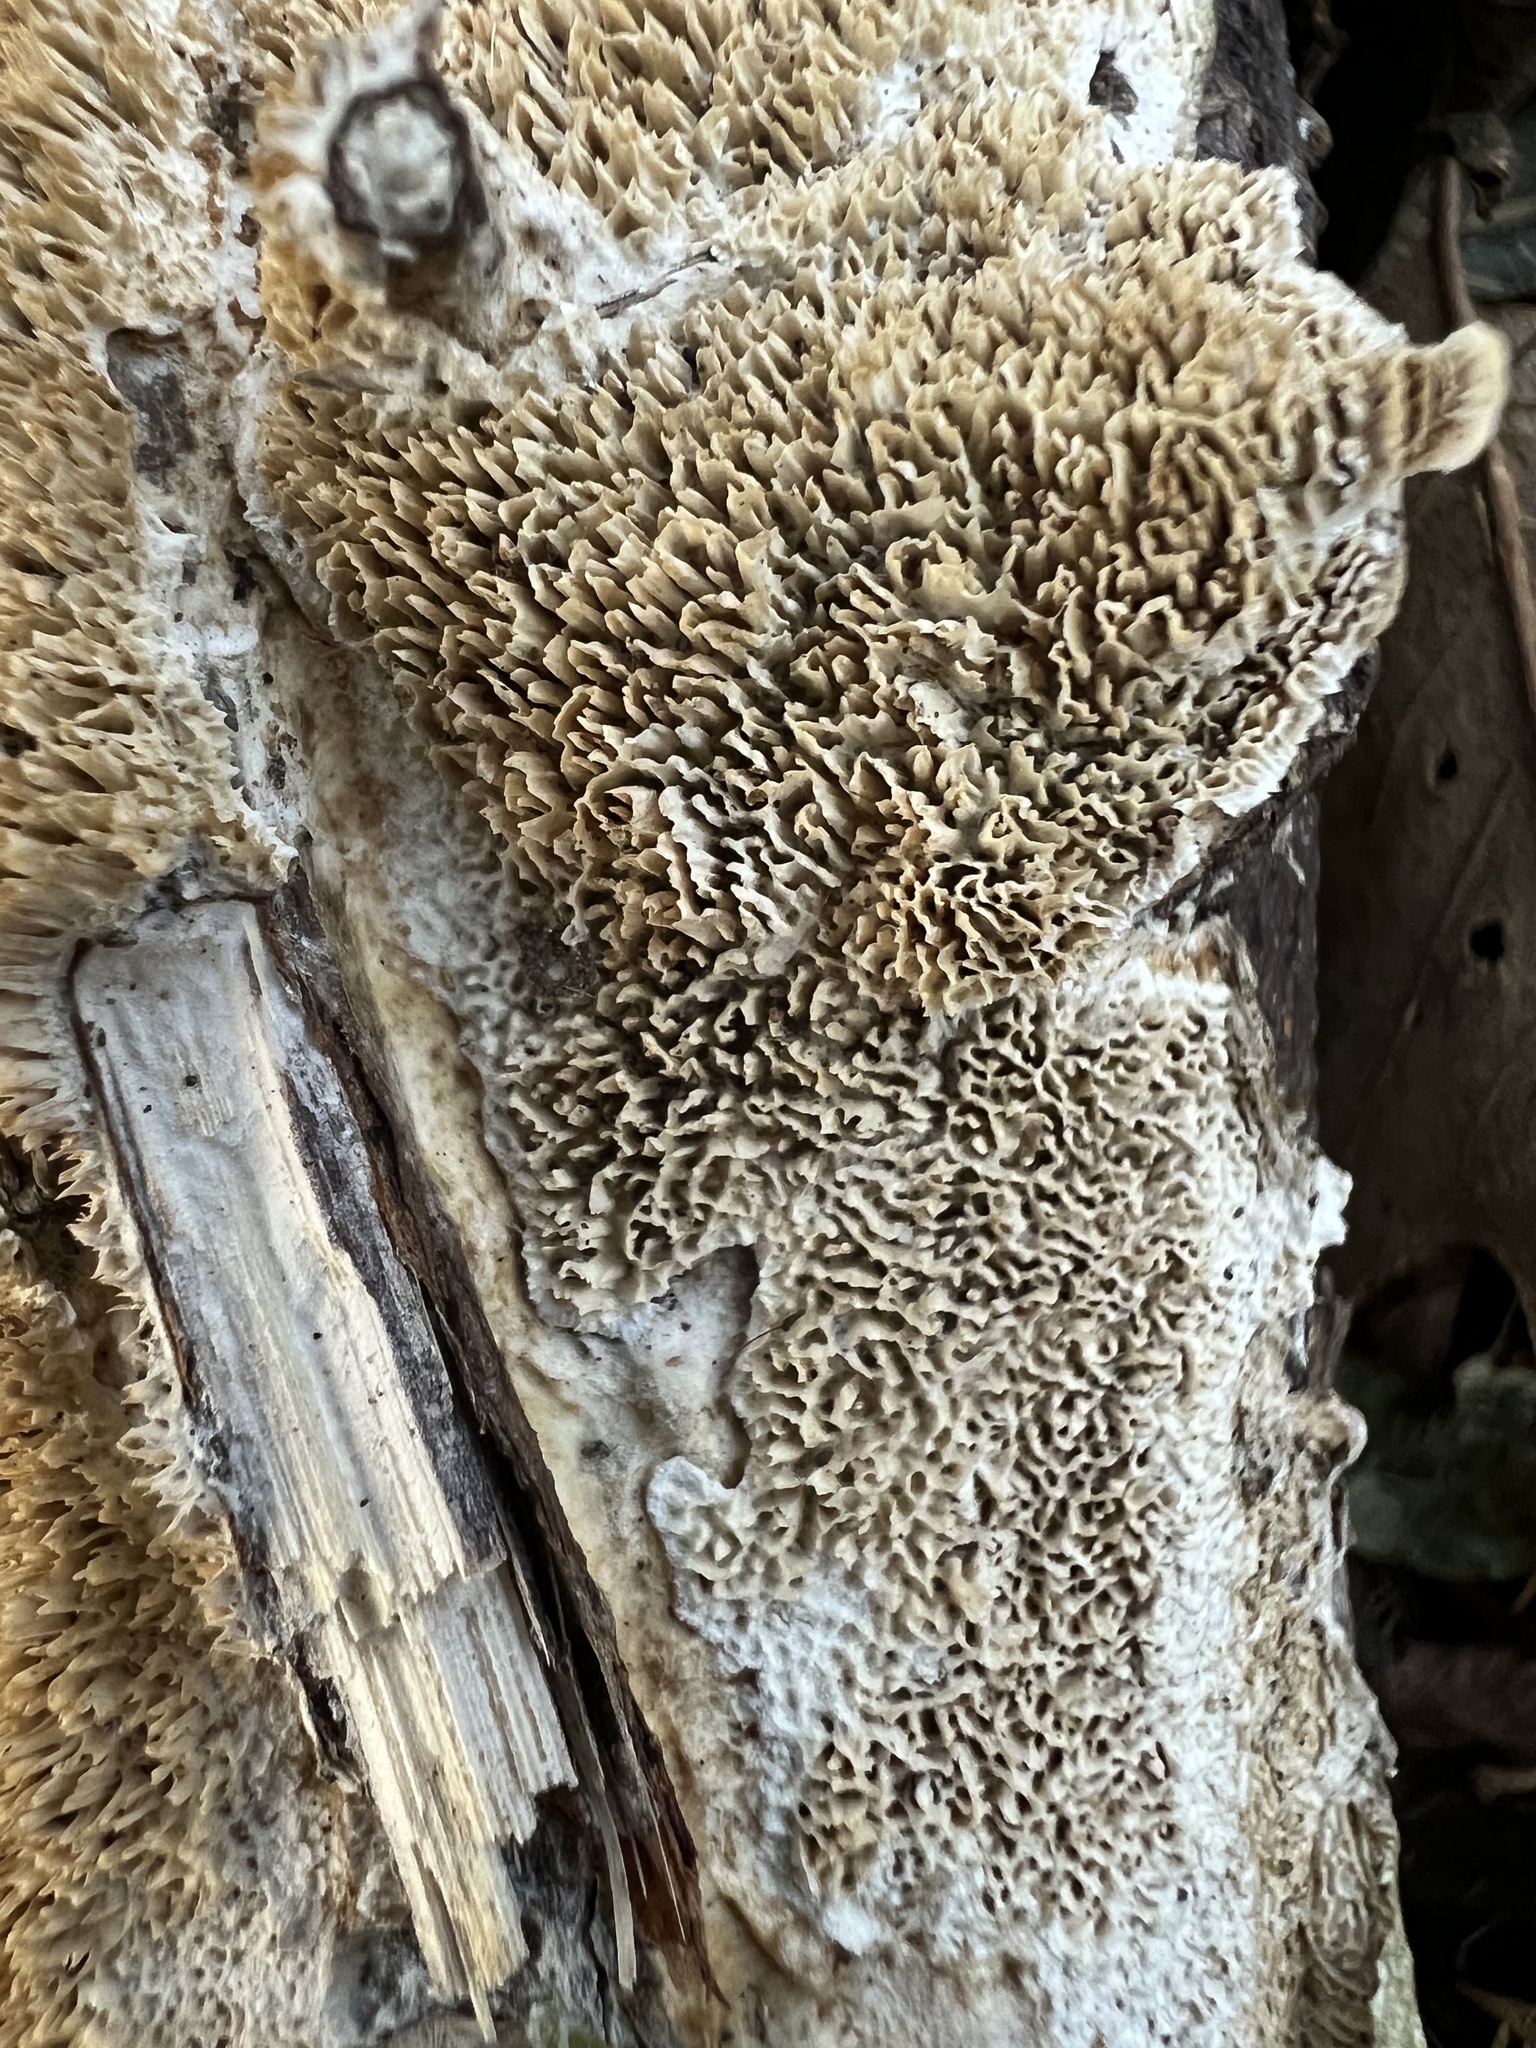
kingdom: Fungi
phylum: Basidiomycota
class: Agaricomycetes
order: Polyporales
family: Irpicaceae
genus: Irpex
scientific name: Irpex lacteus
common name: Milk-white toothed polypore
